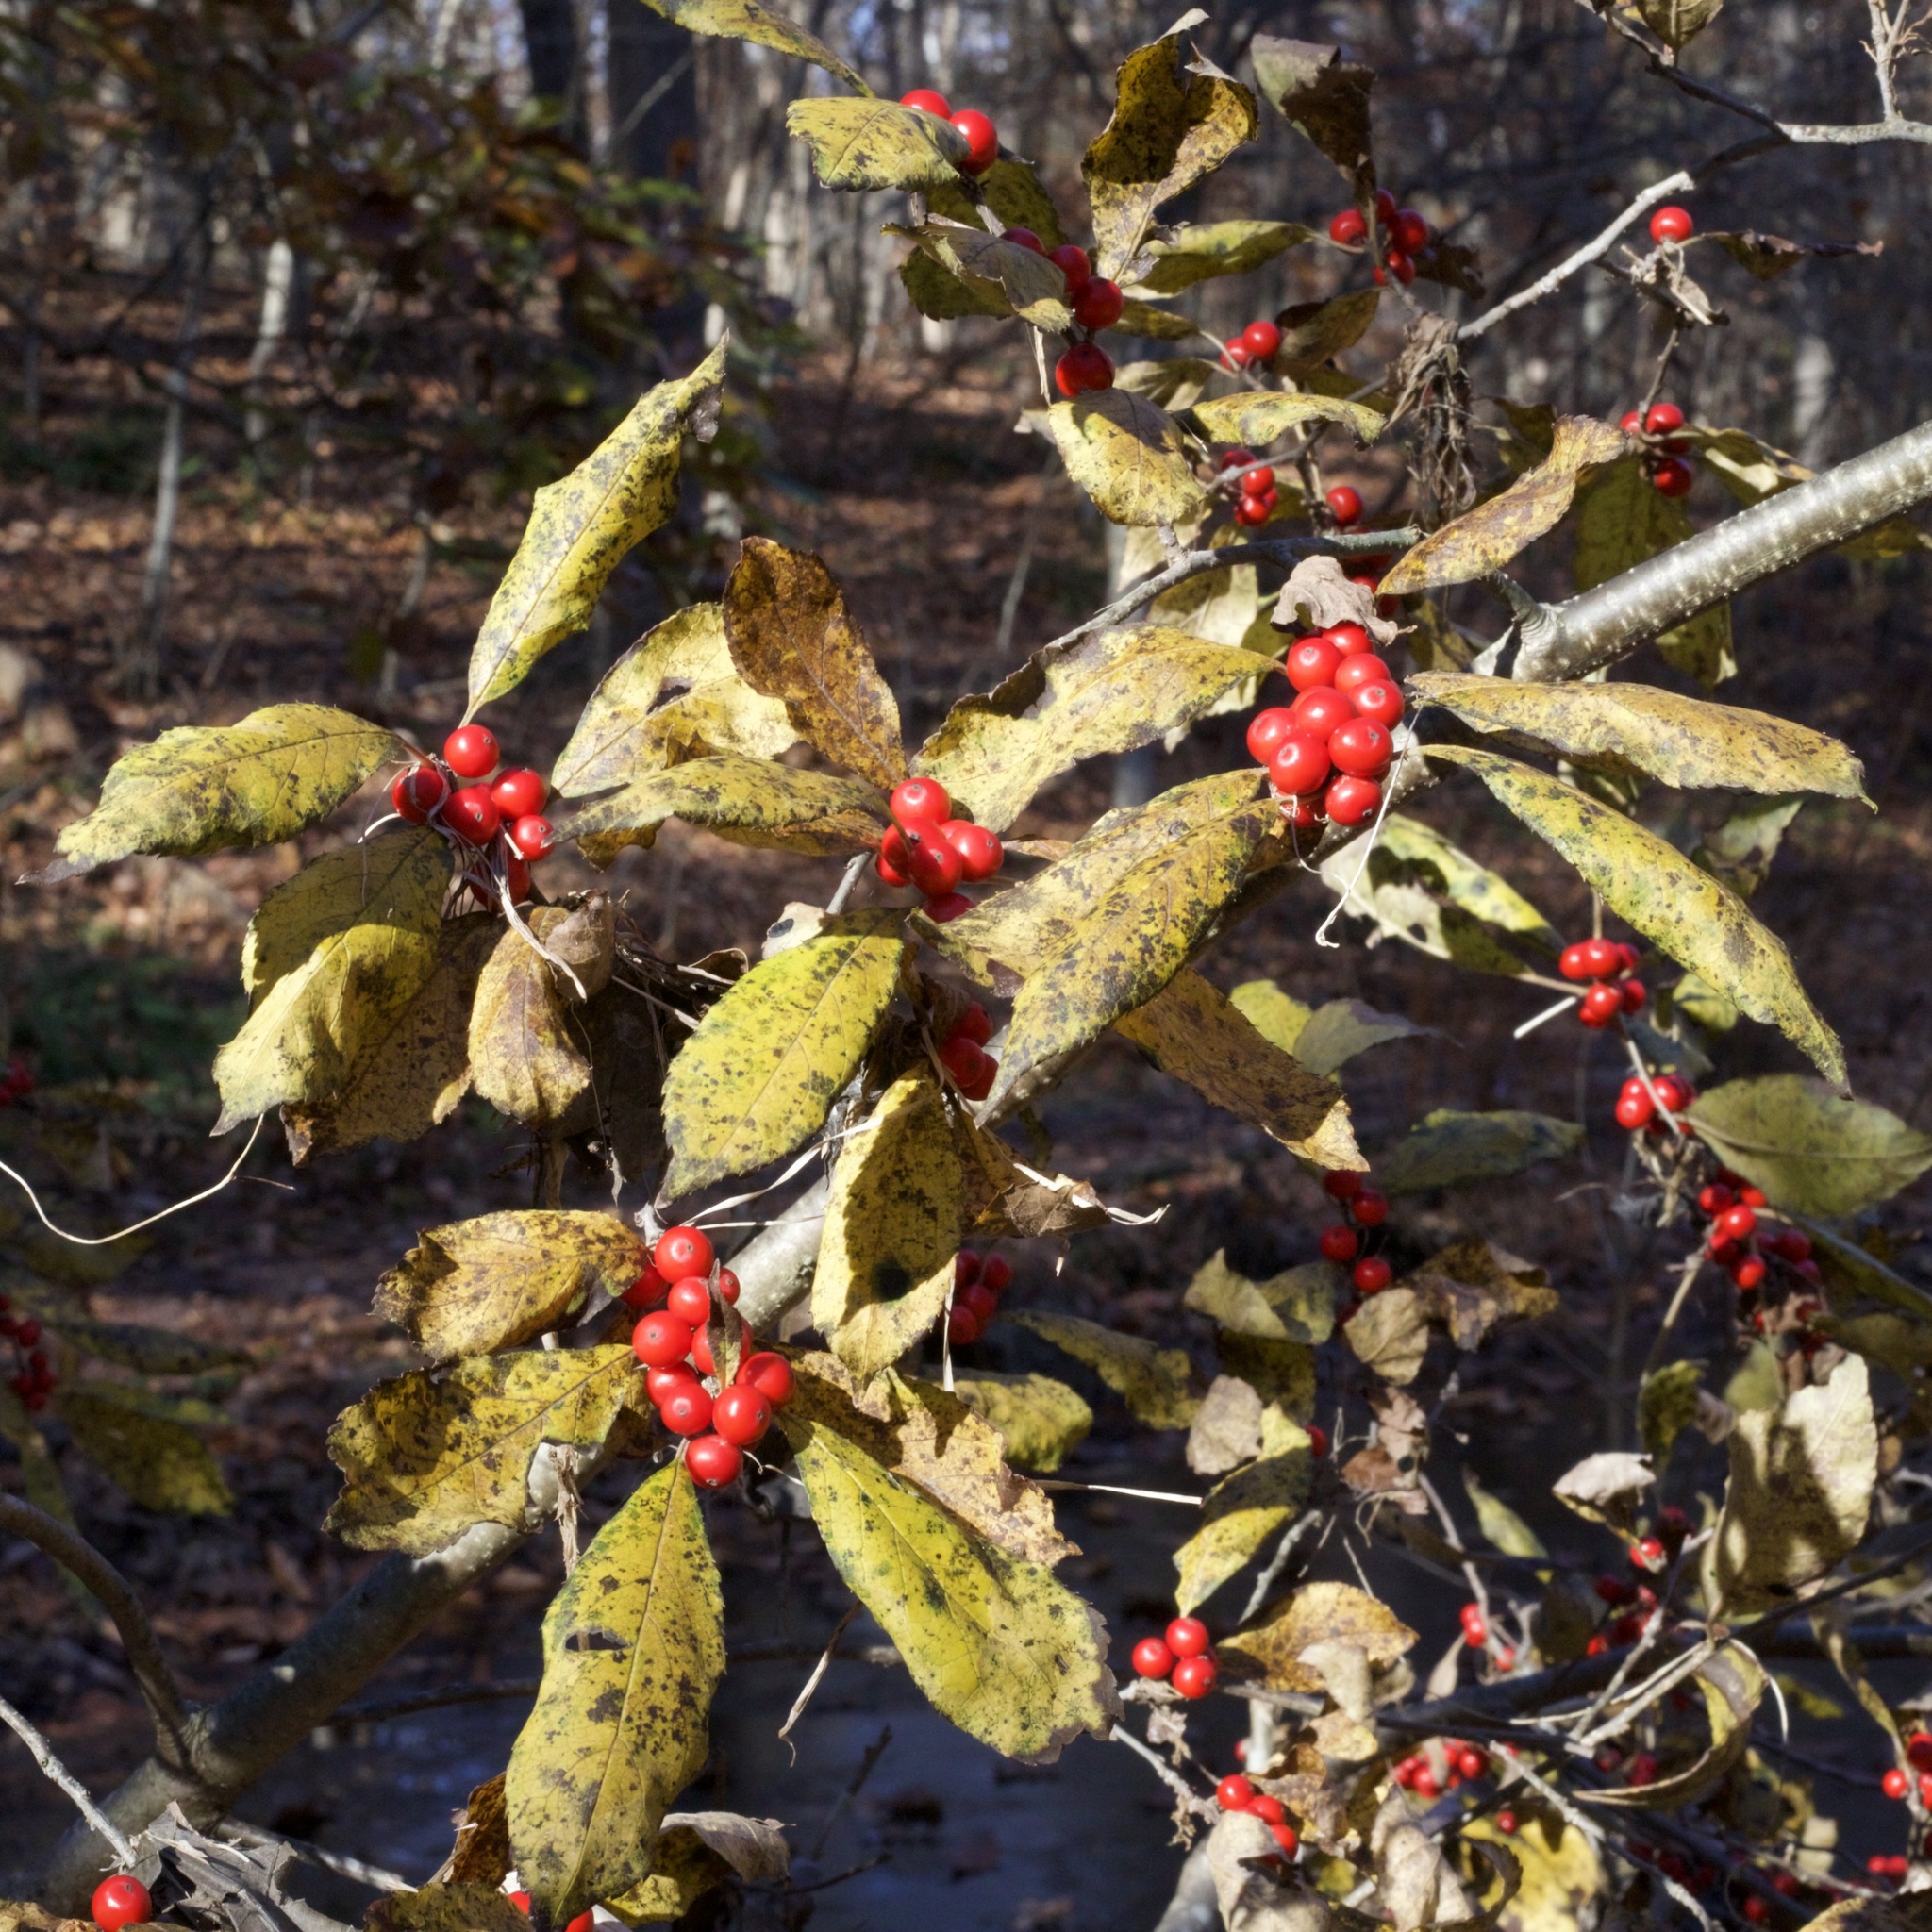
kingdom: Plantae
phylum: Tracheophyta
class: Magnoliopsida
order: Aquifoliales
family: Aquifoliaceae
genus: Ilex
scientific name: Ilex verticillata
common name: Virginia winterberry
